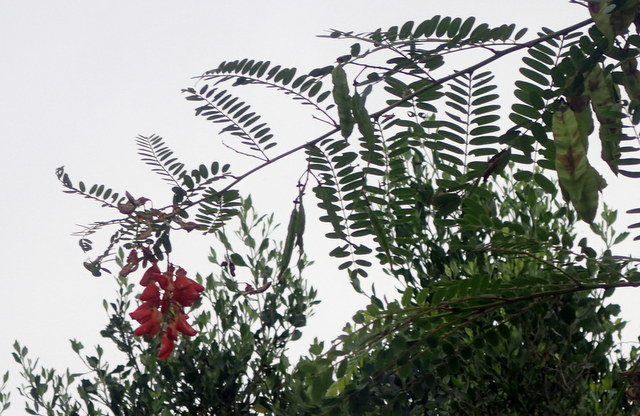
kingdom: Plantae
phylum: Tracheophyta
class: Magnoliopsida
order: Fabales
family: Fabaceae
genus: Sesbania
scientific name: Sesbania punicea
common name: Rattlebox
